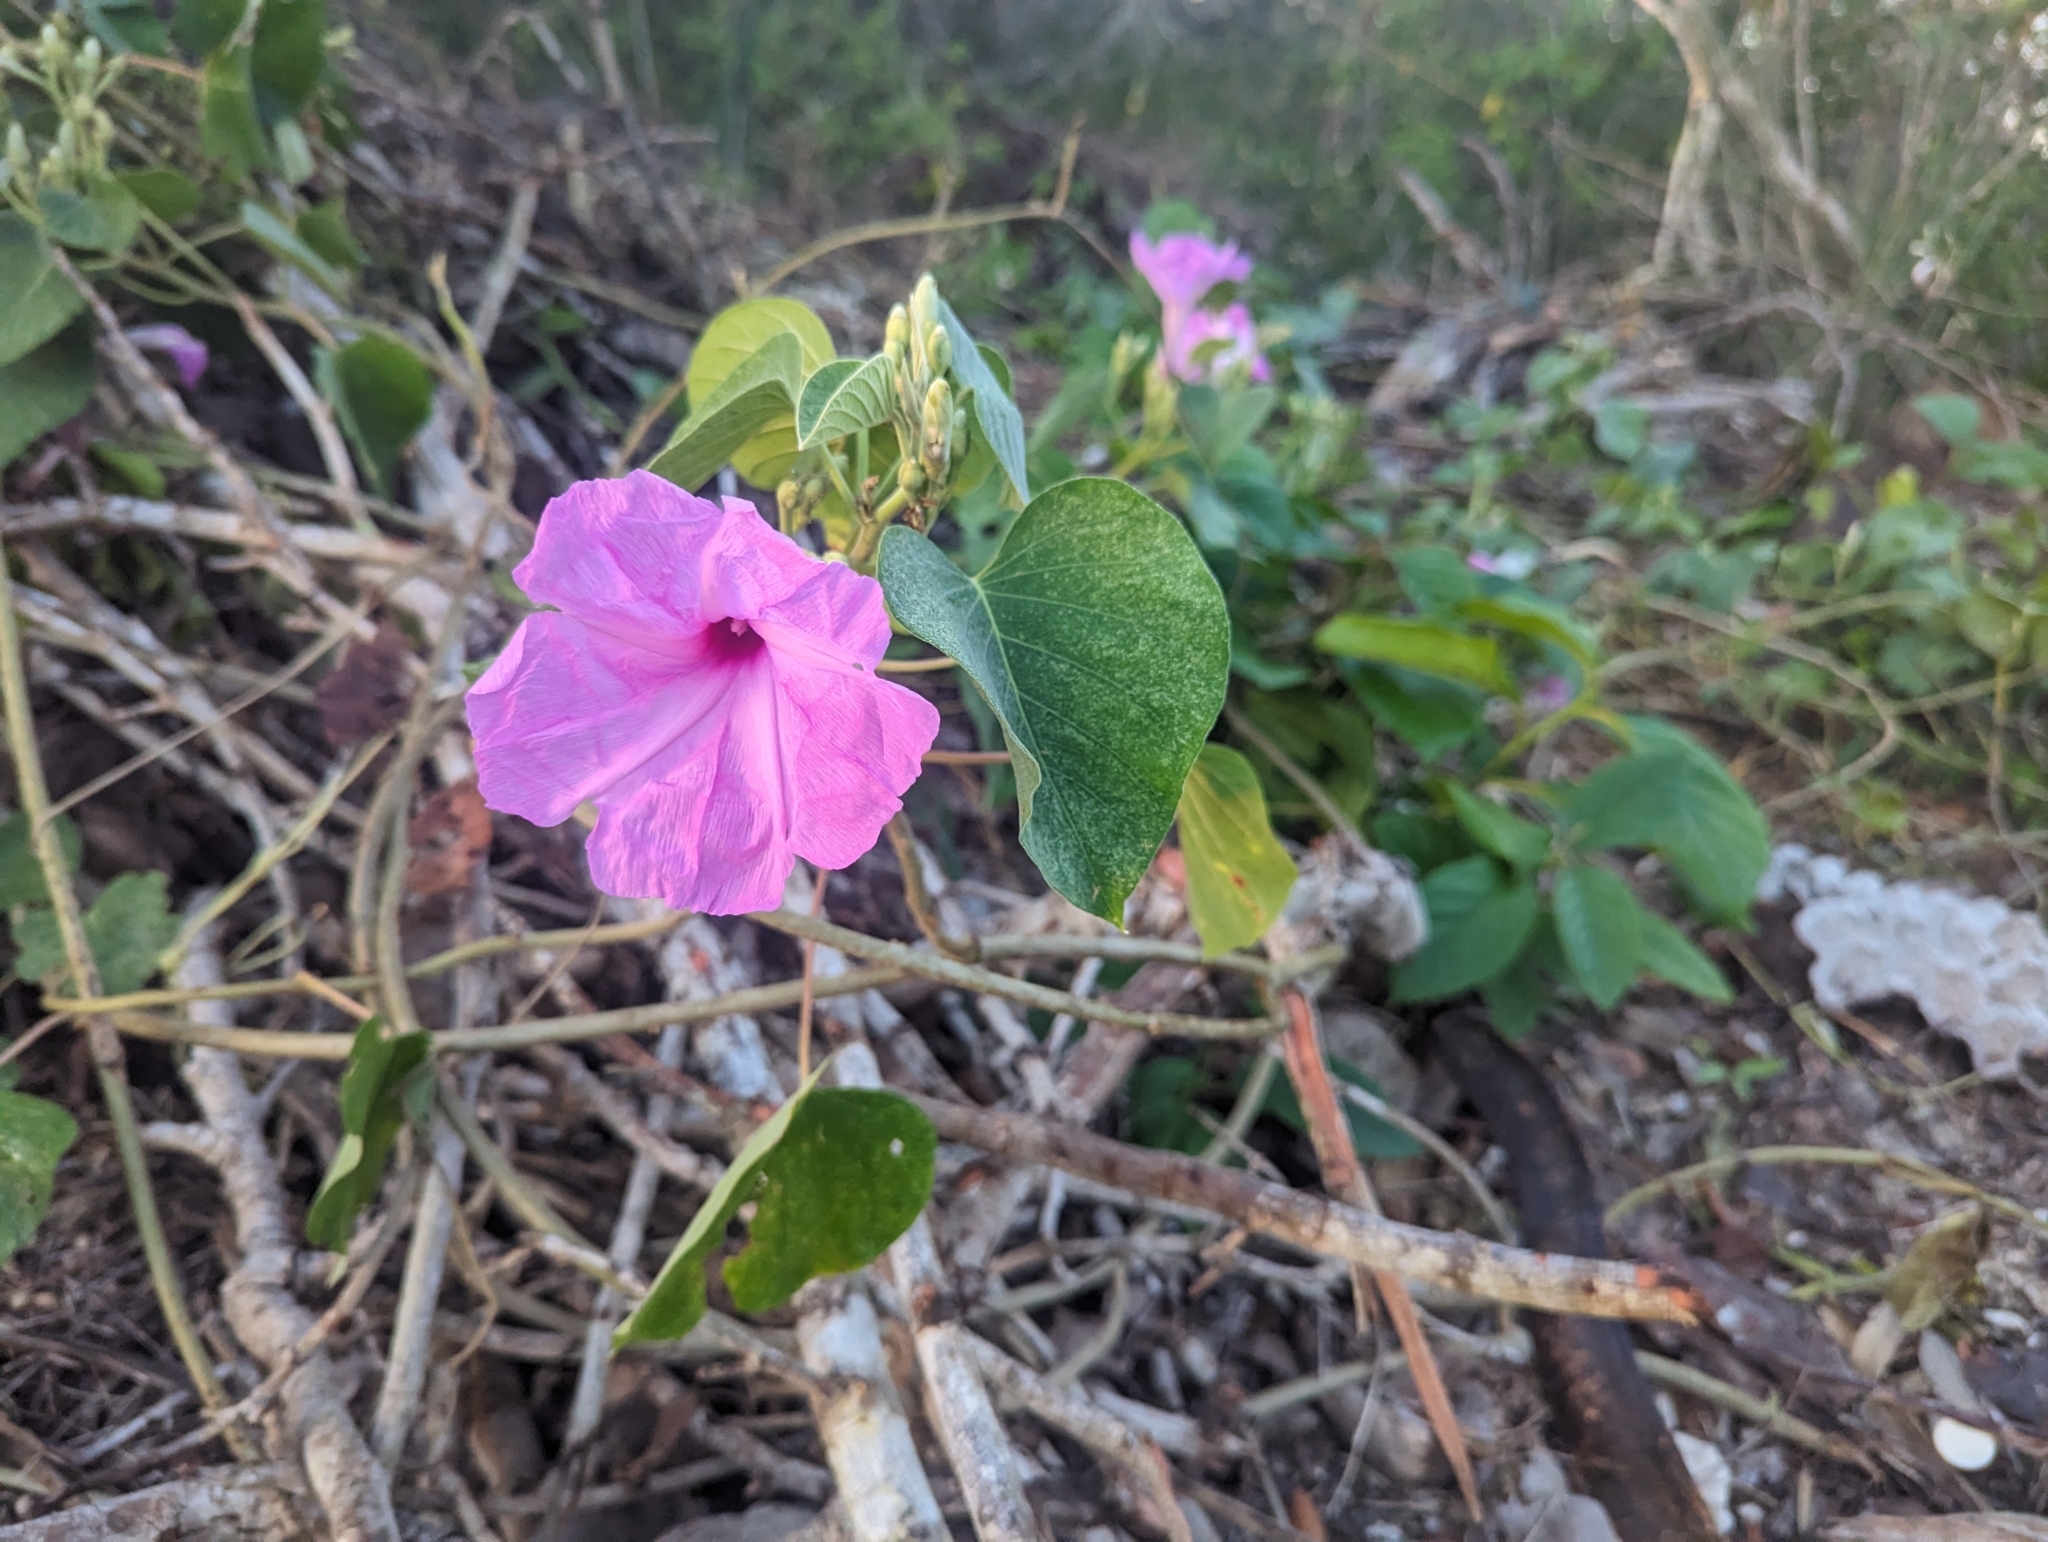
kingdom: Plantae
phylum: Tracheophyta
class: Magnoliopsida
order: Solanales
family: Convolvulaceae
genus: Ipomoea
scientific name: Ipomoea carnea
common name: Morning-glory
